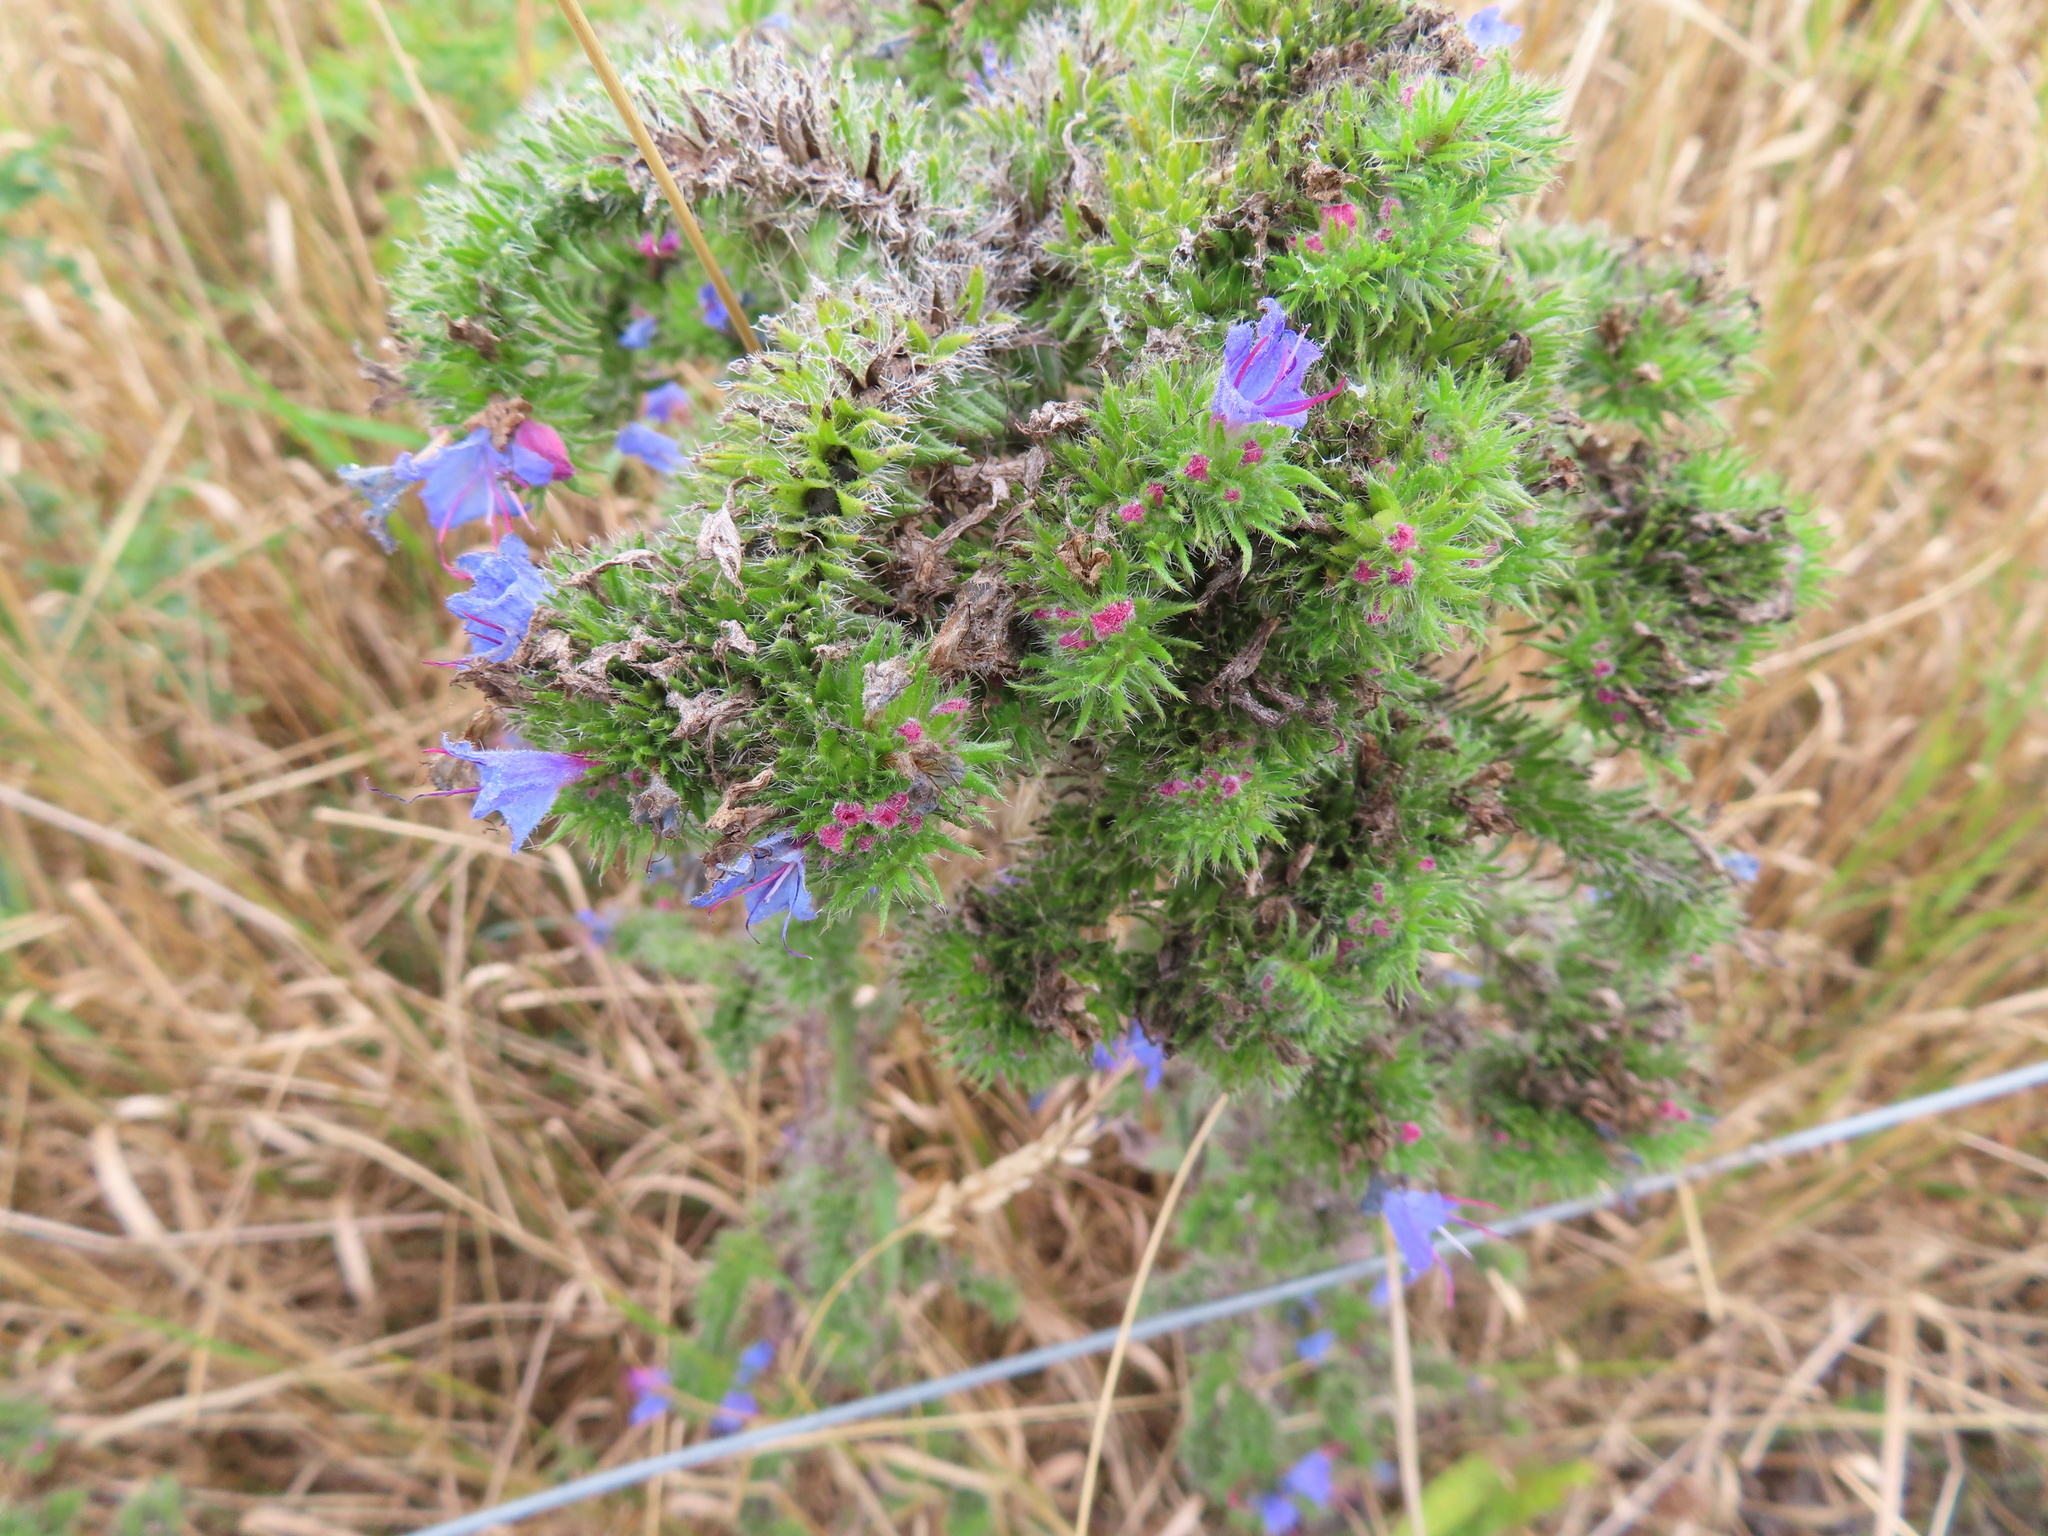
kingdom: Plantae
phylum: Tracheophyta
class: Magnoliopsida
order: Boraginales
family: Boraginaceae
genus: Echium
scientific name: Echium vulgare
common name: Common viper's bugloss
